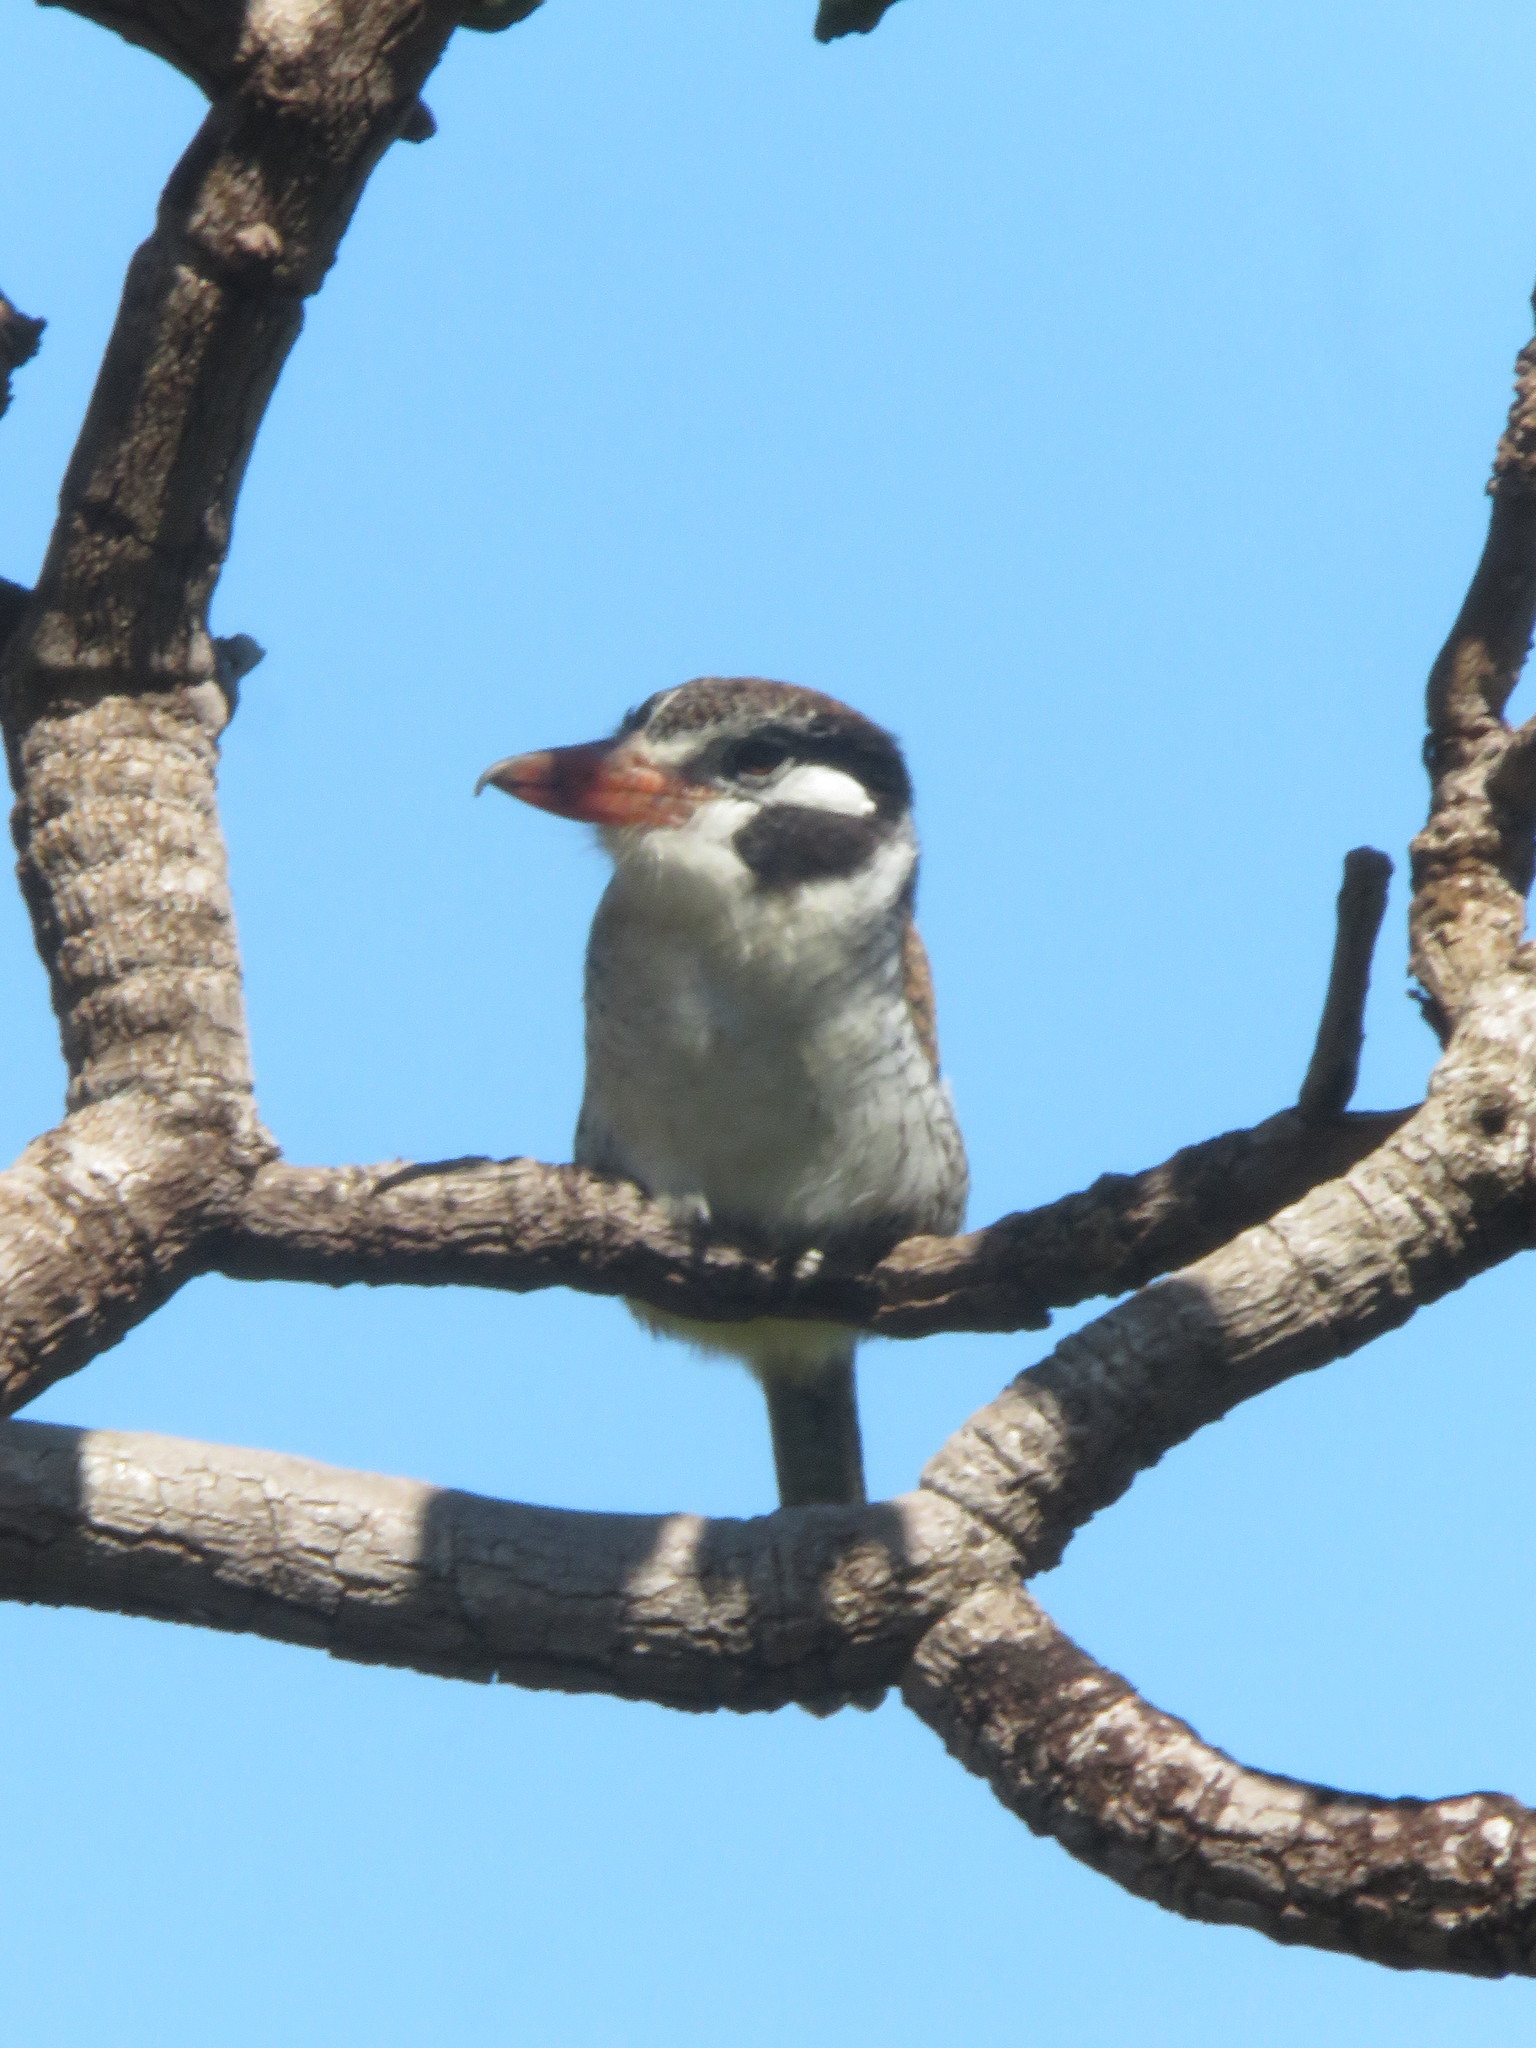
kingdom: Animalia
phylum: Chordata
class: Aves
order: Piciformes
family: Bucconidae
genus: Nystalus
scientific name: Nystalus chacuru
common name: White-eared puffbird
